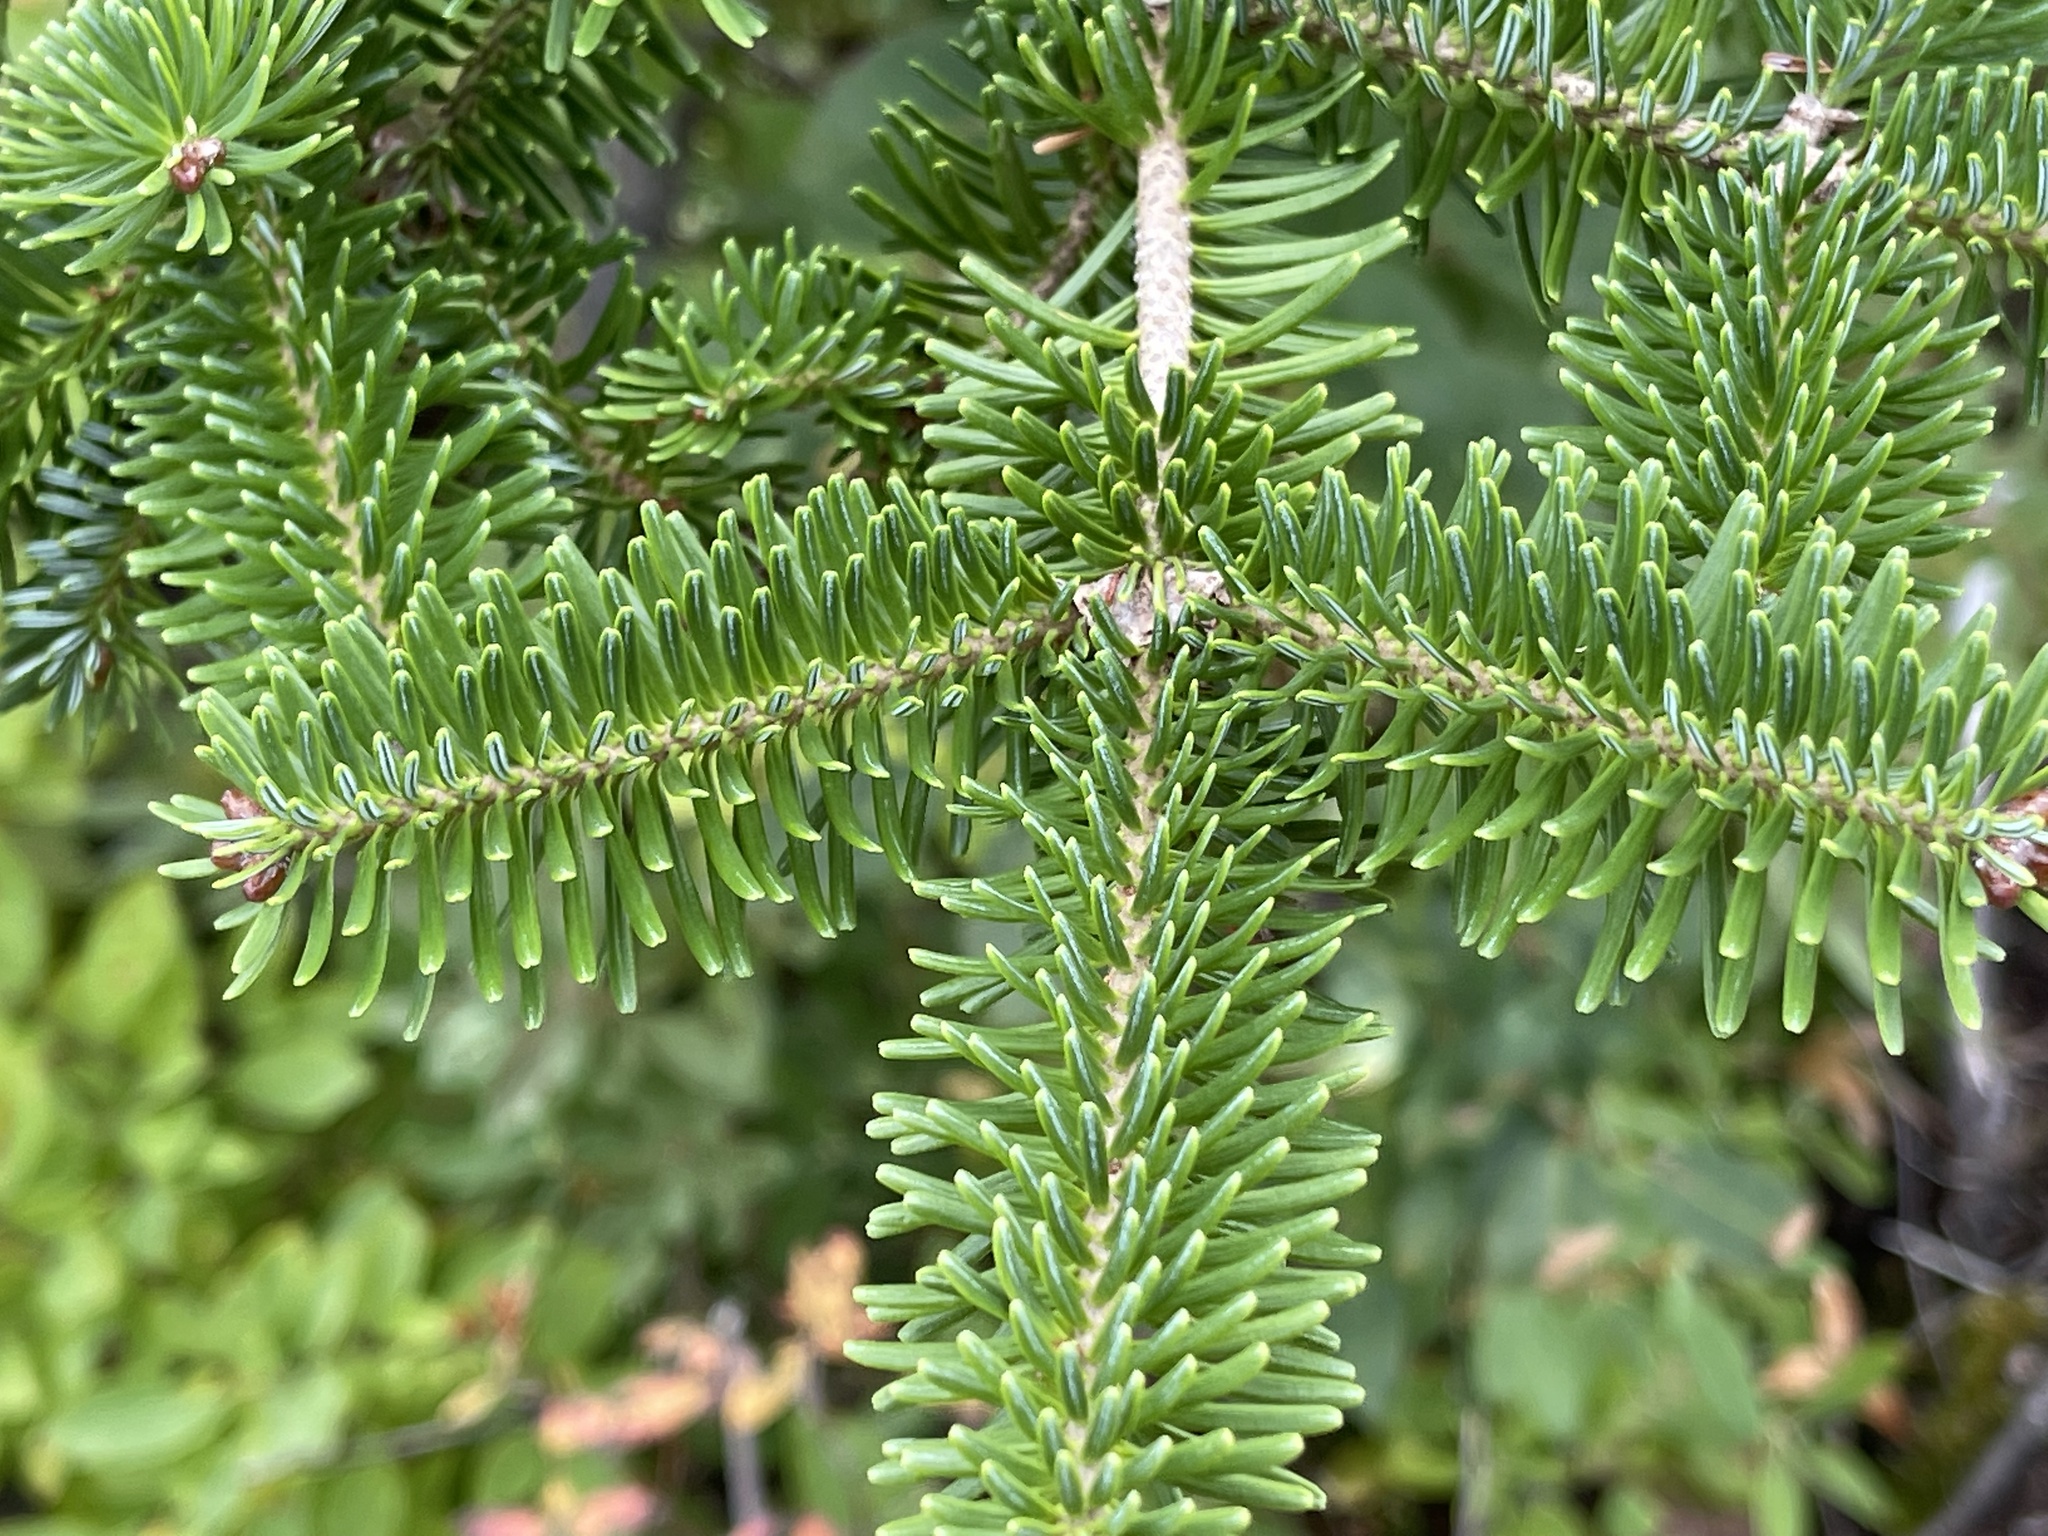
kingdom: Plantae
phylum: Tracheophyta
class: Pinopsida
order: Pinales
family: Pinaceae
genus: Abies
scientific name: Abies balsamea
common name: Balsam fir
